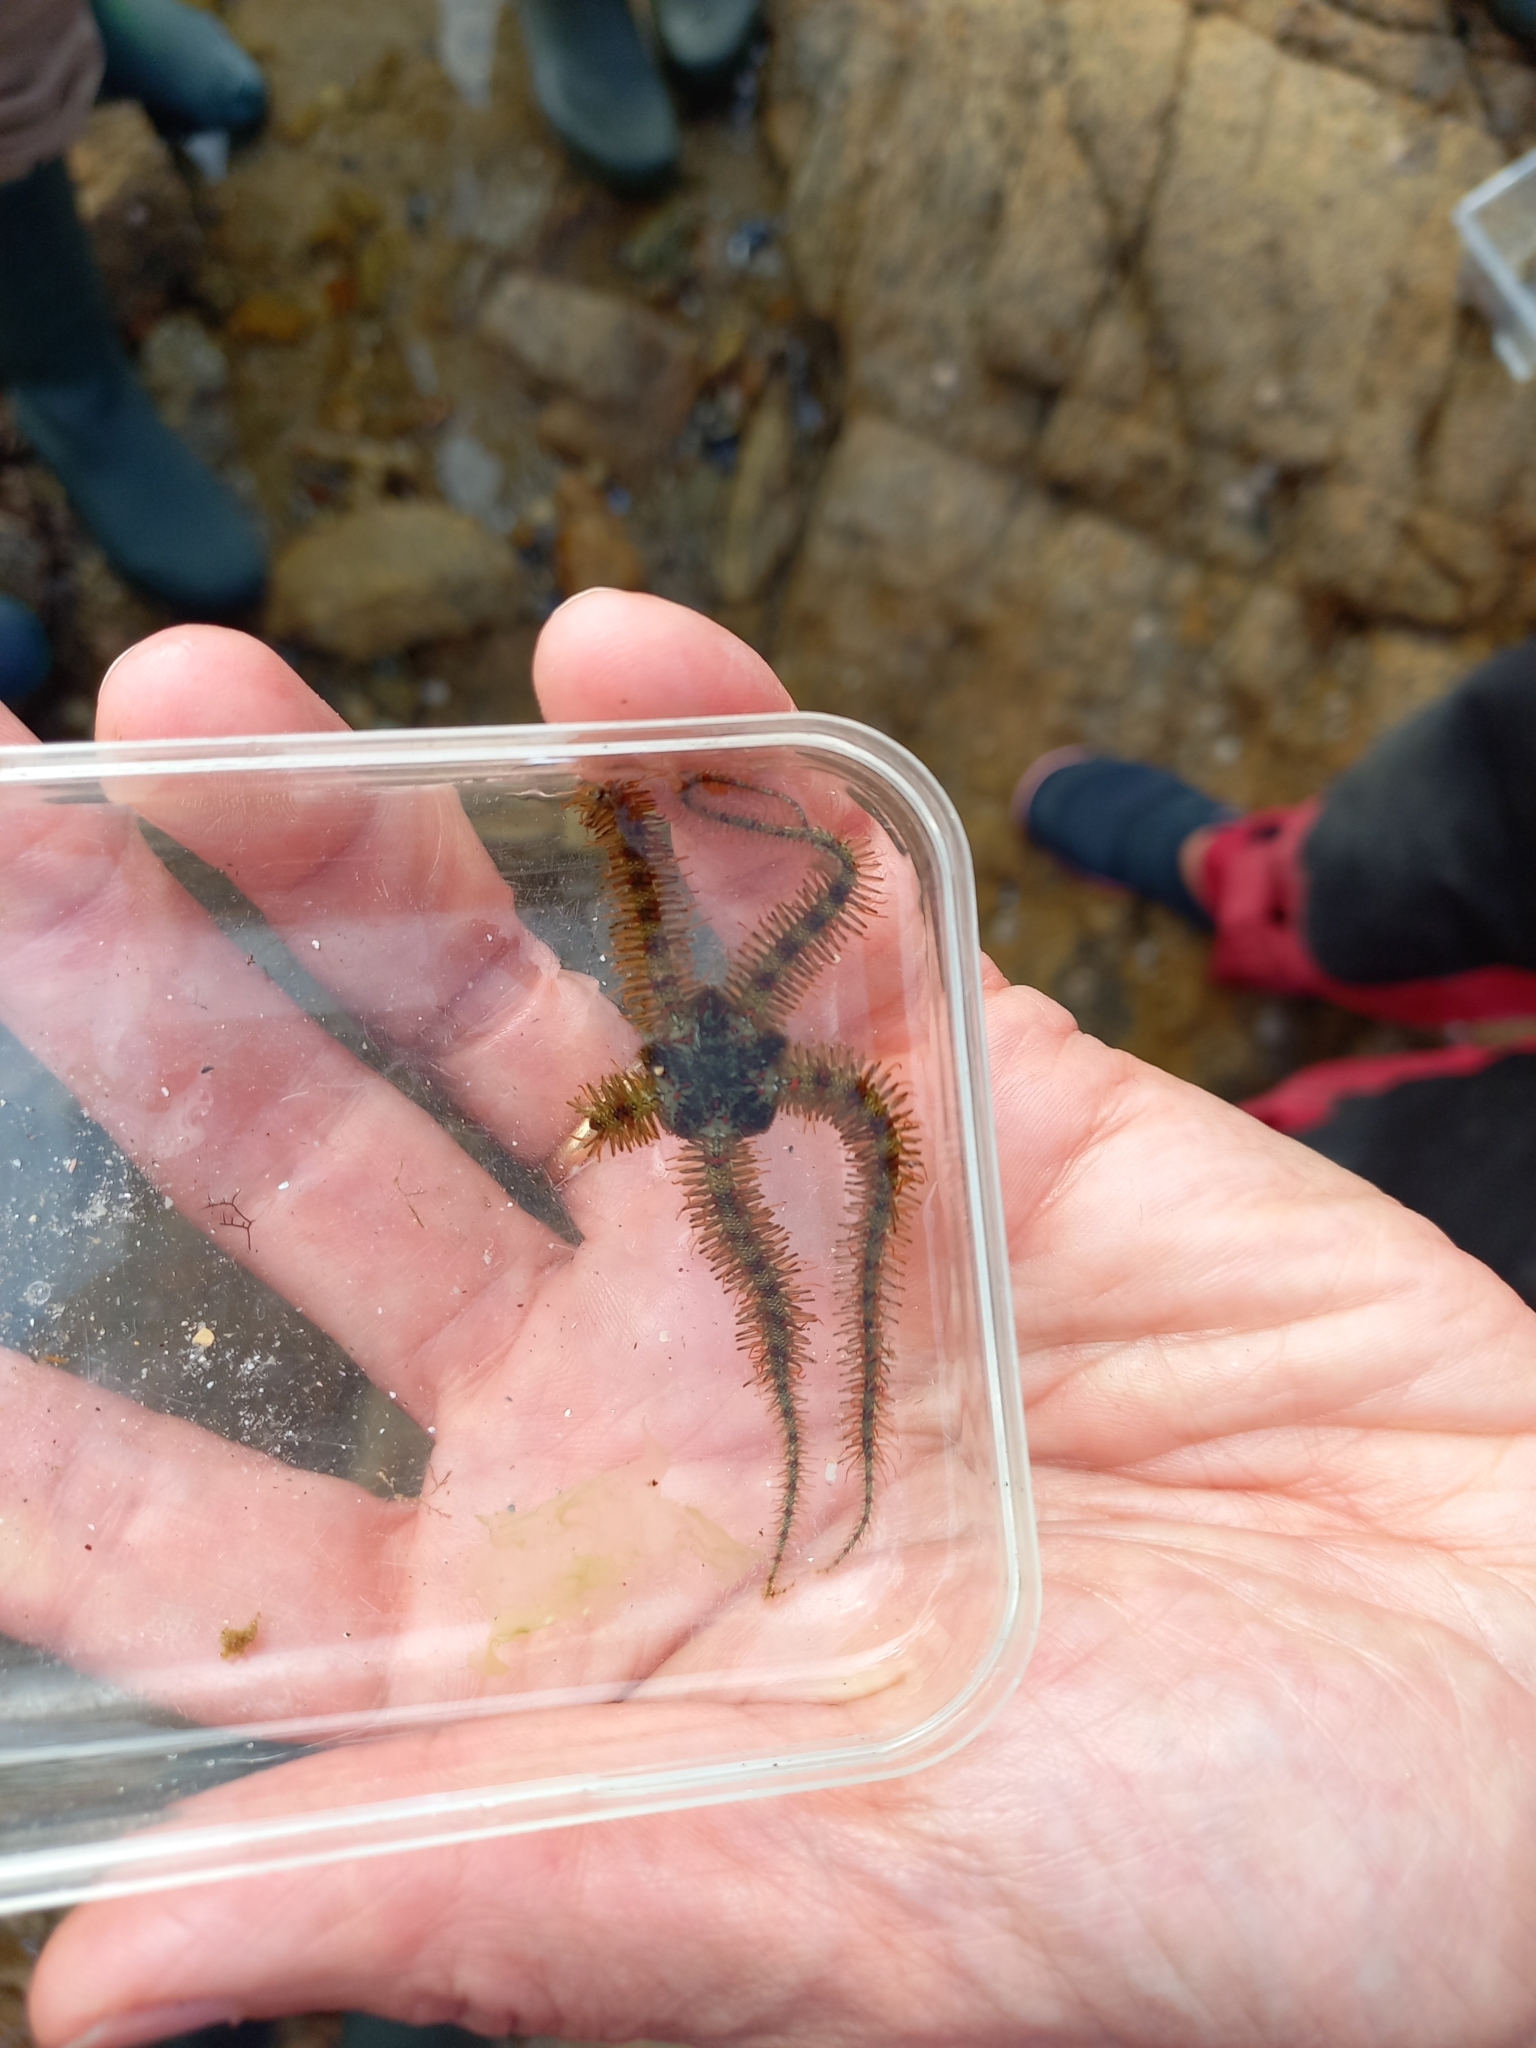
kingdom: Animalia
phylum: Echinodermata
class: Ophiuroidea
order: Amphilepidida
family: Ophiotrichidae
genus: Ophiothrix
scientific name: Ophiothrix fragilis
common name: Common brittlestar
